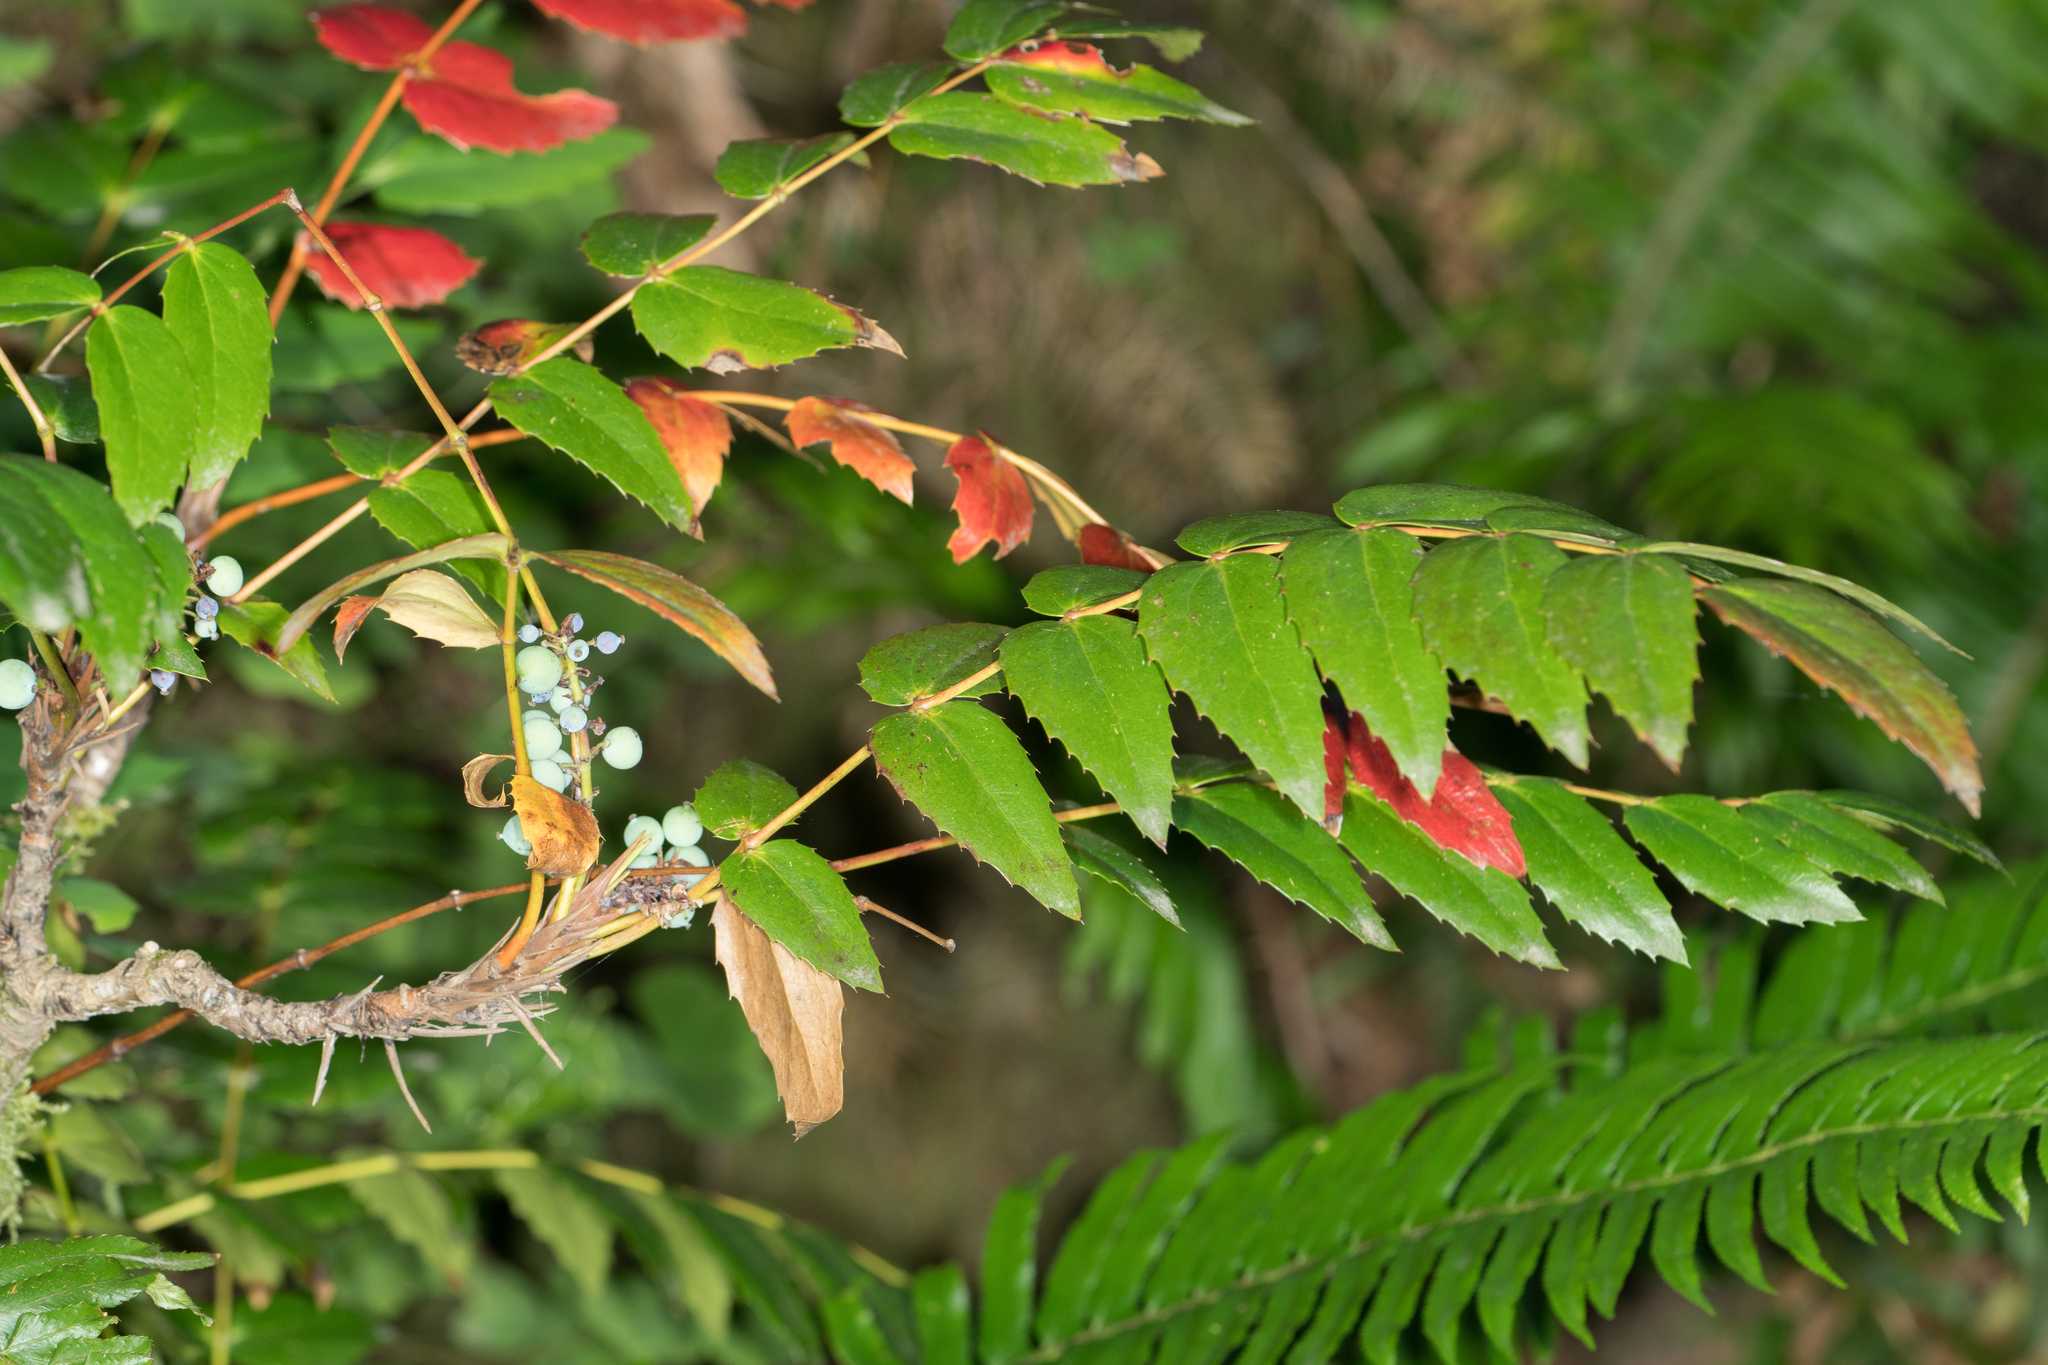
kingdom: Plantae
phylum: Tracheophyta
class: Magnoliopsida
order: Ranunculales
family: Berberidaceae
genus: Mahonia
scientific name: Mahonia nervosa
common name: Cascade oregon-grape
